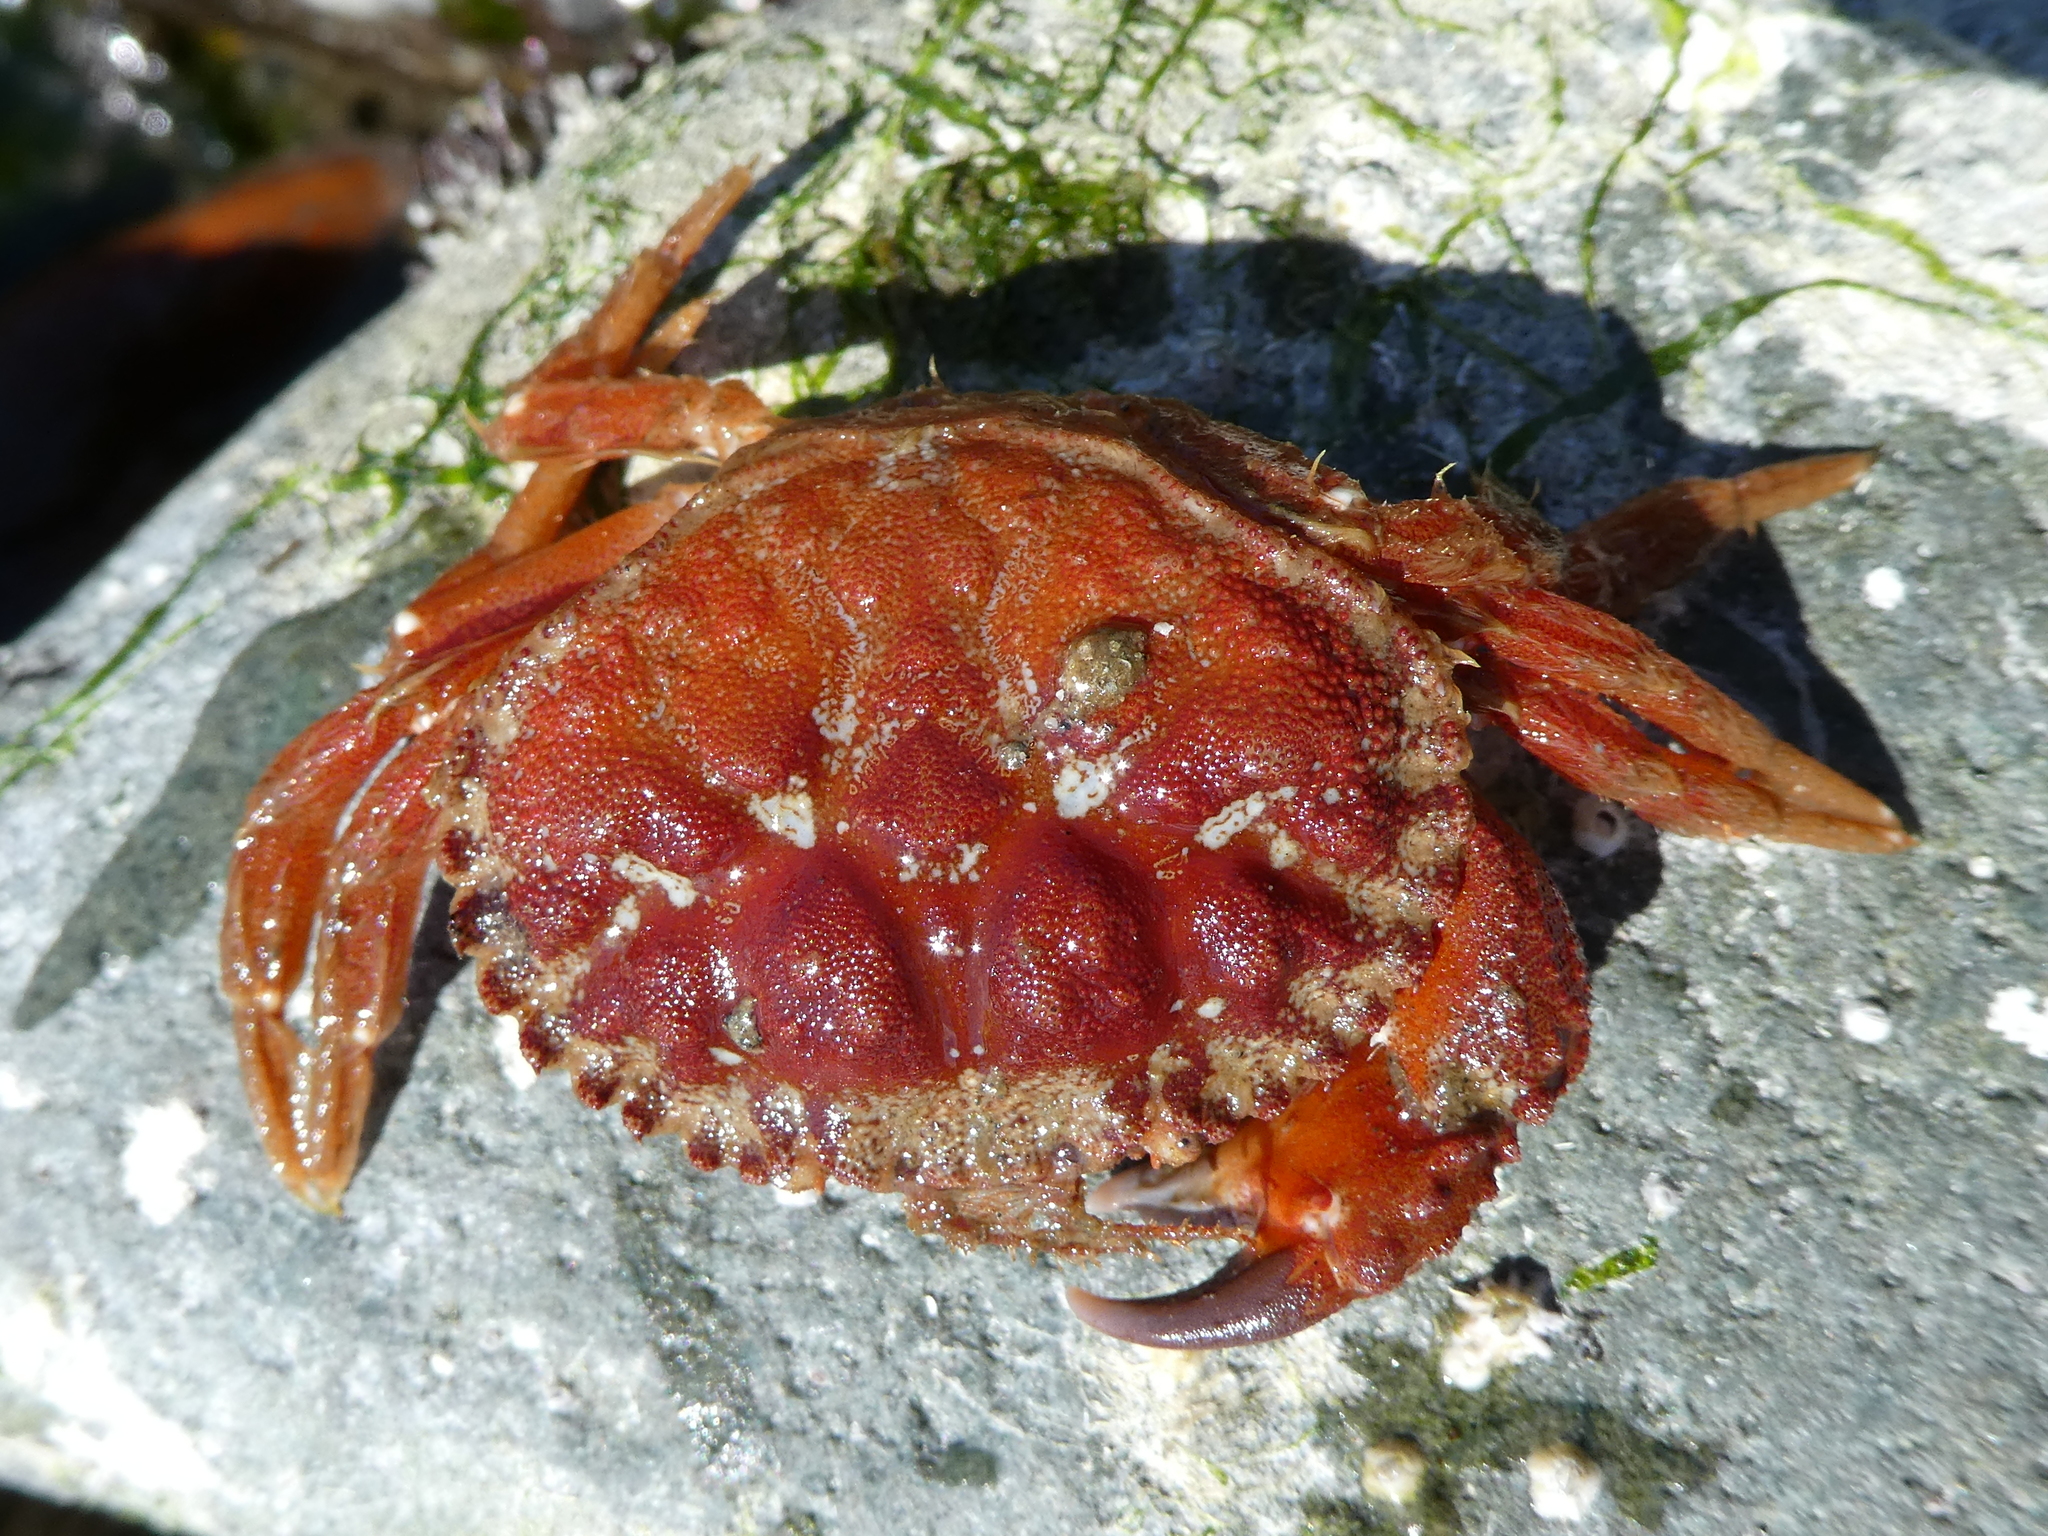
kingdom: Animalia
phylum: Arthropoda
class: Malacostraca
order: Decapoda
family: Cancridae
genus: Glebocarcinus
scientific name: Glebocarcinus oregonensis
